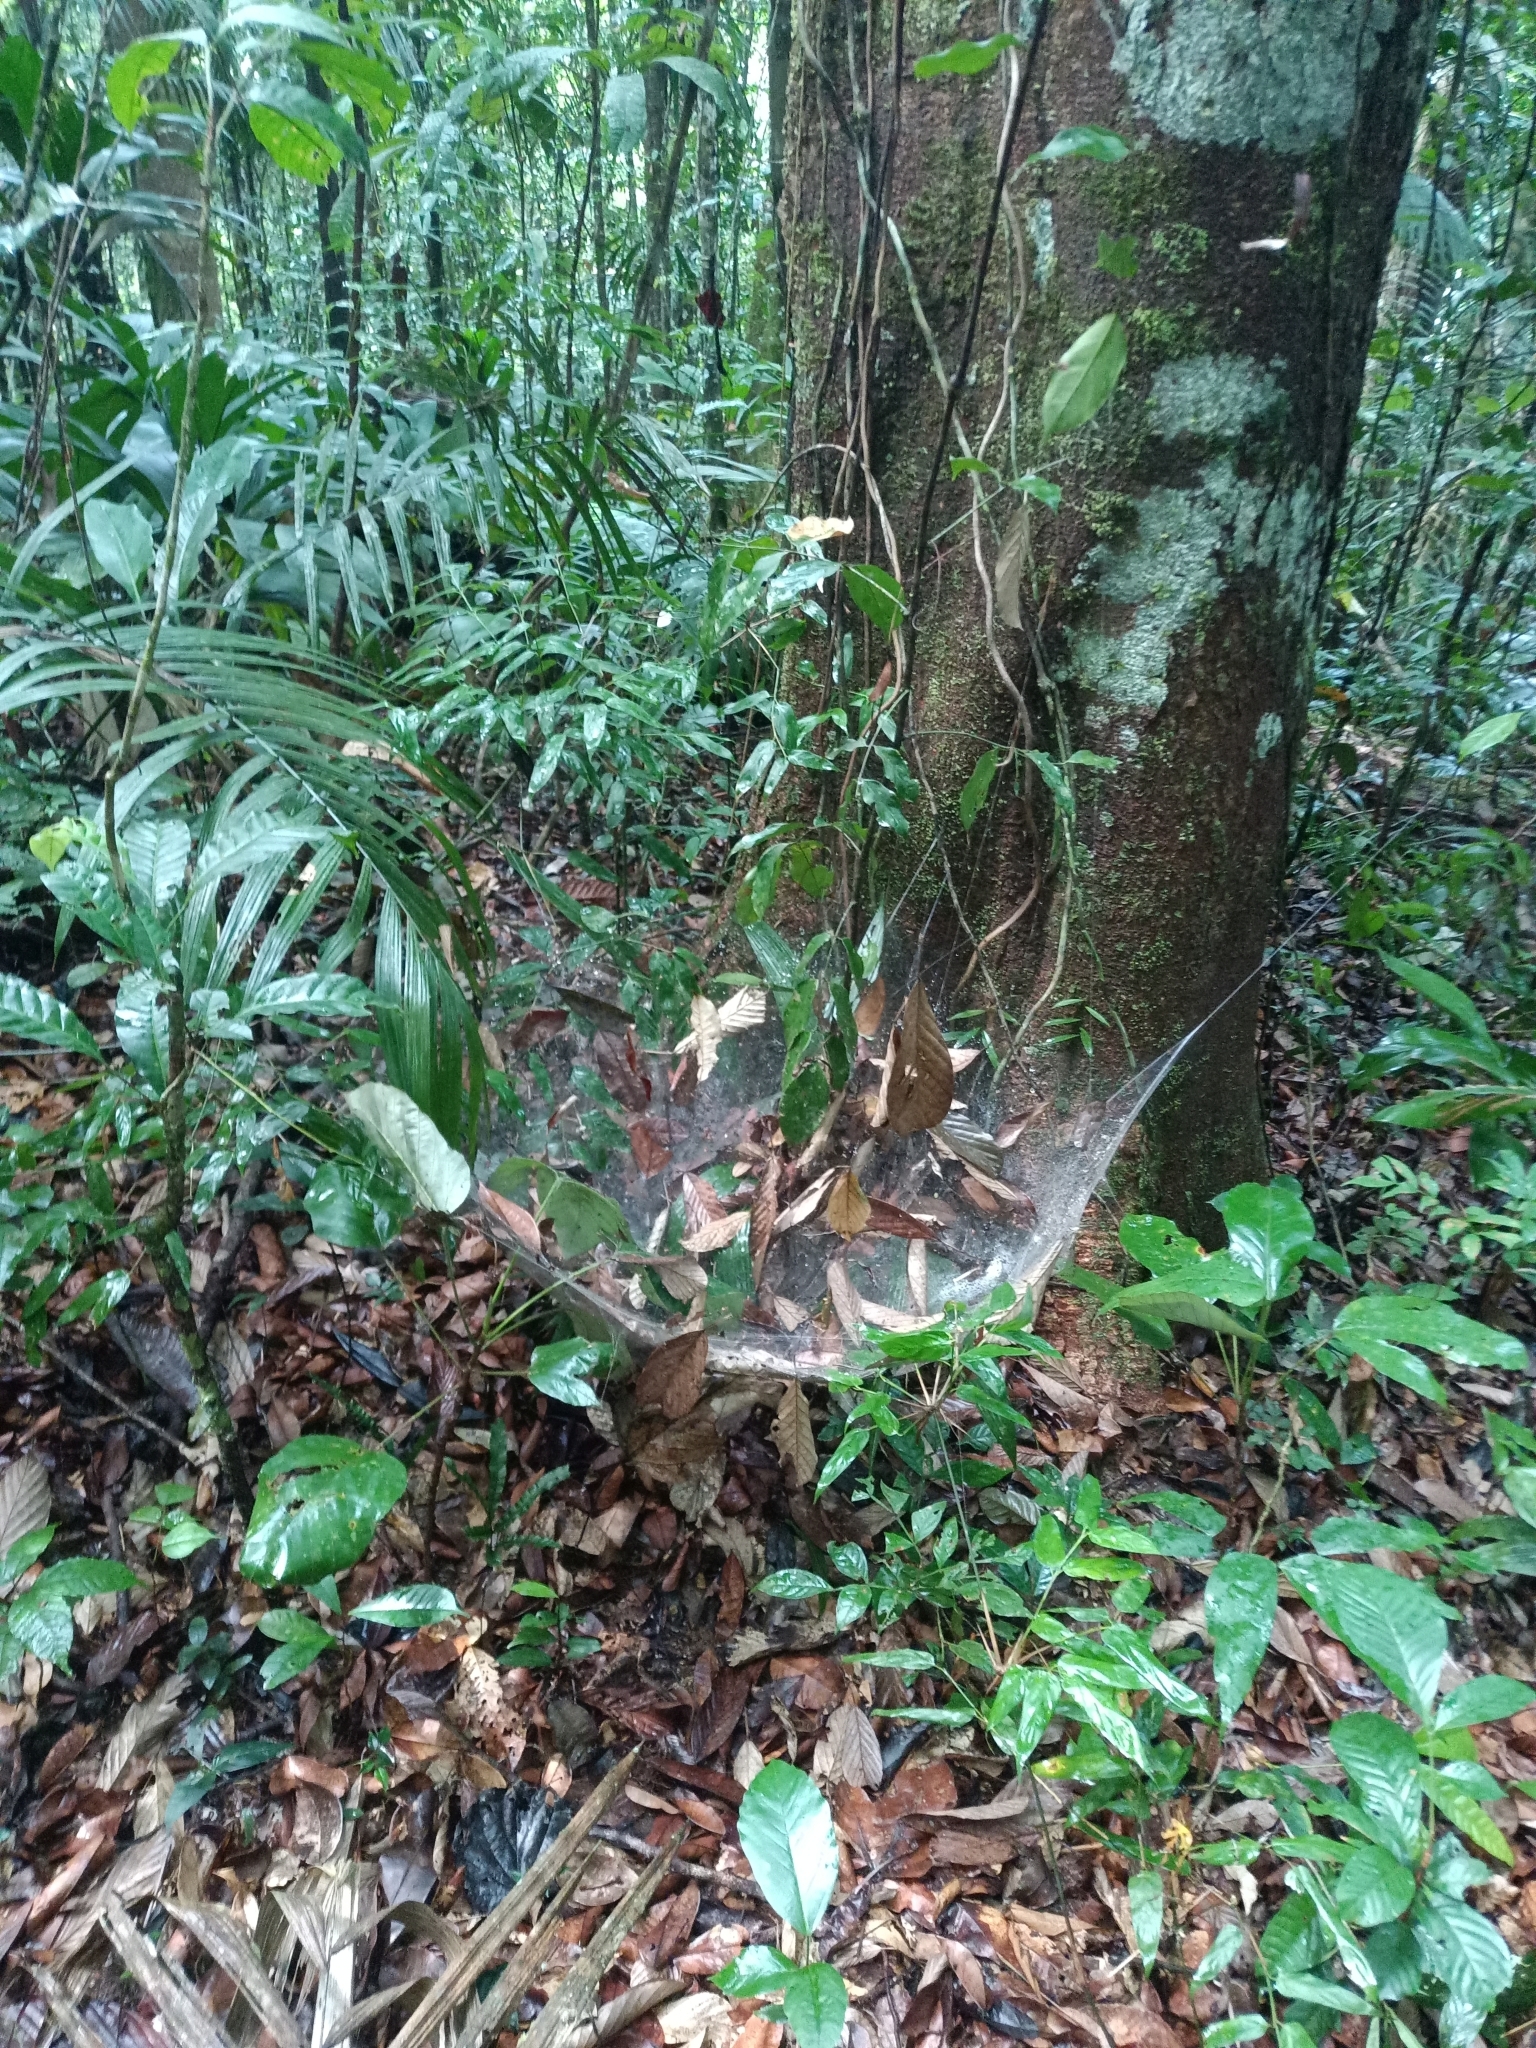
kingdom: Animalia
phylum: Arthropoda
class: Arachnida
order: Araneae
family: Theridiidae
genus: Anelosimus
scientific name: Anelosimus
